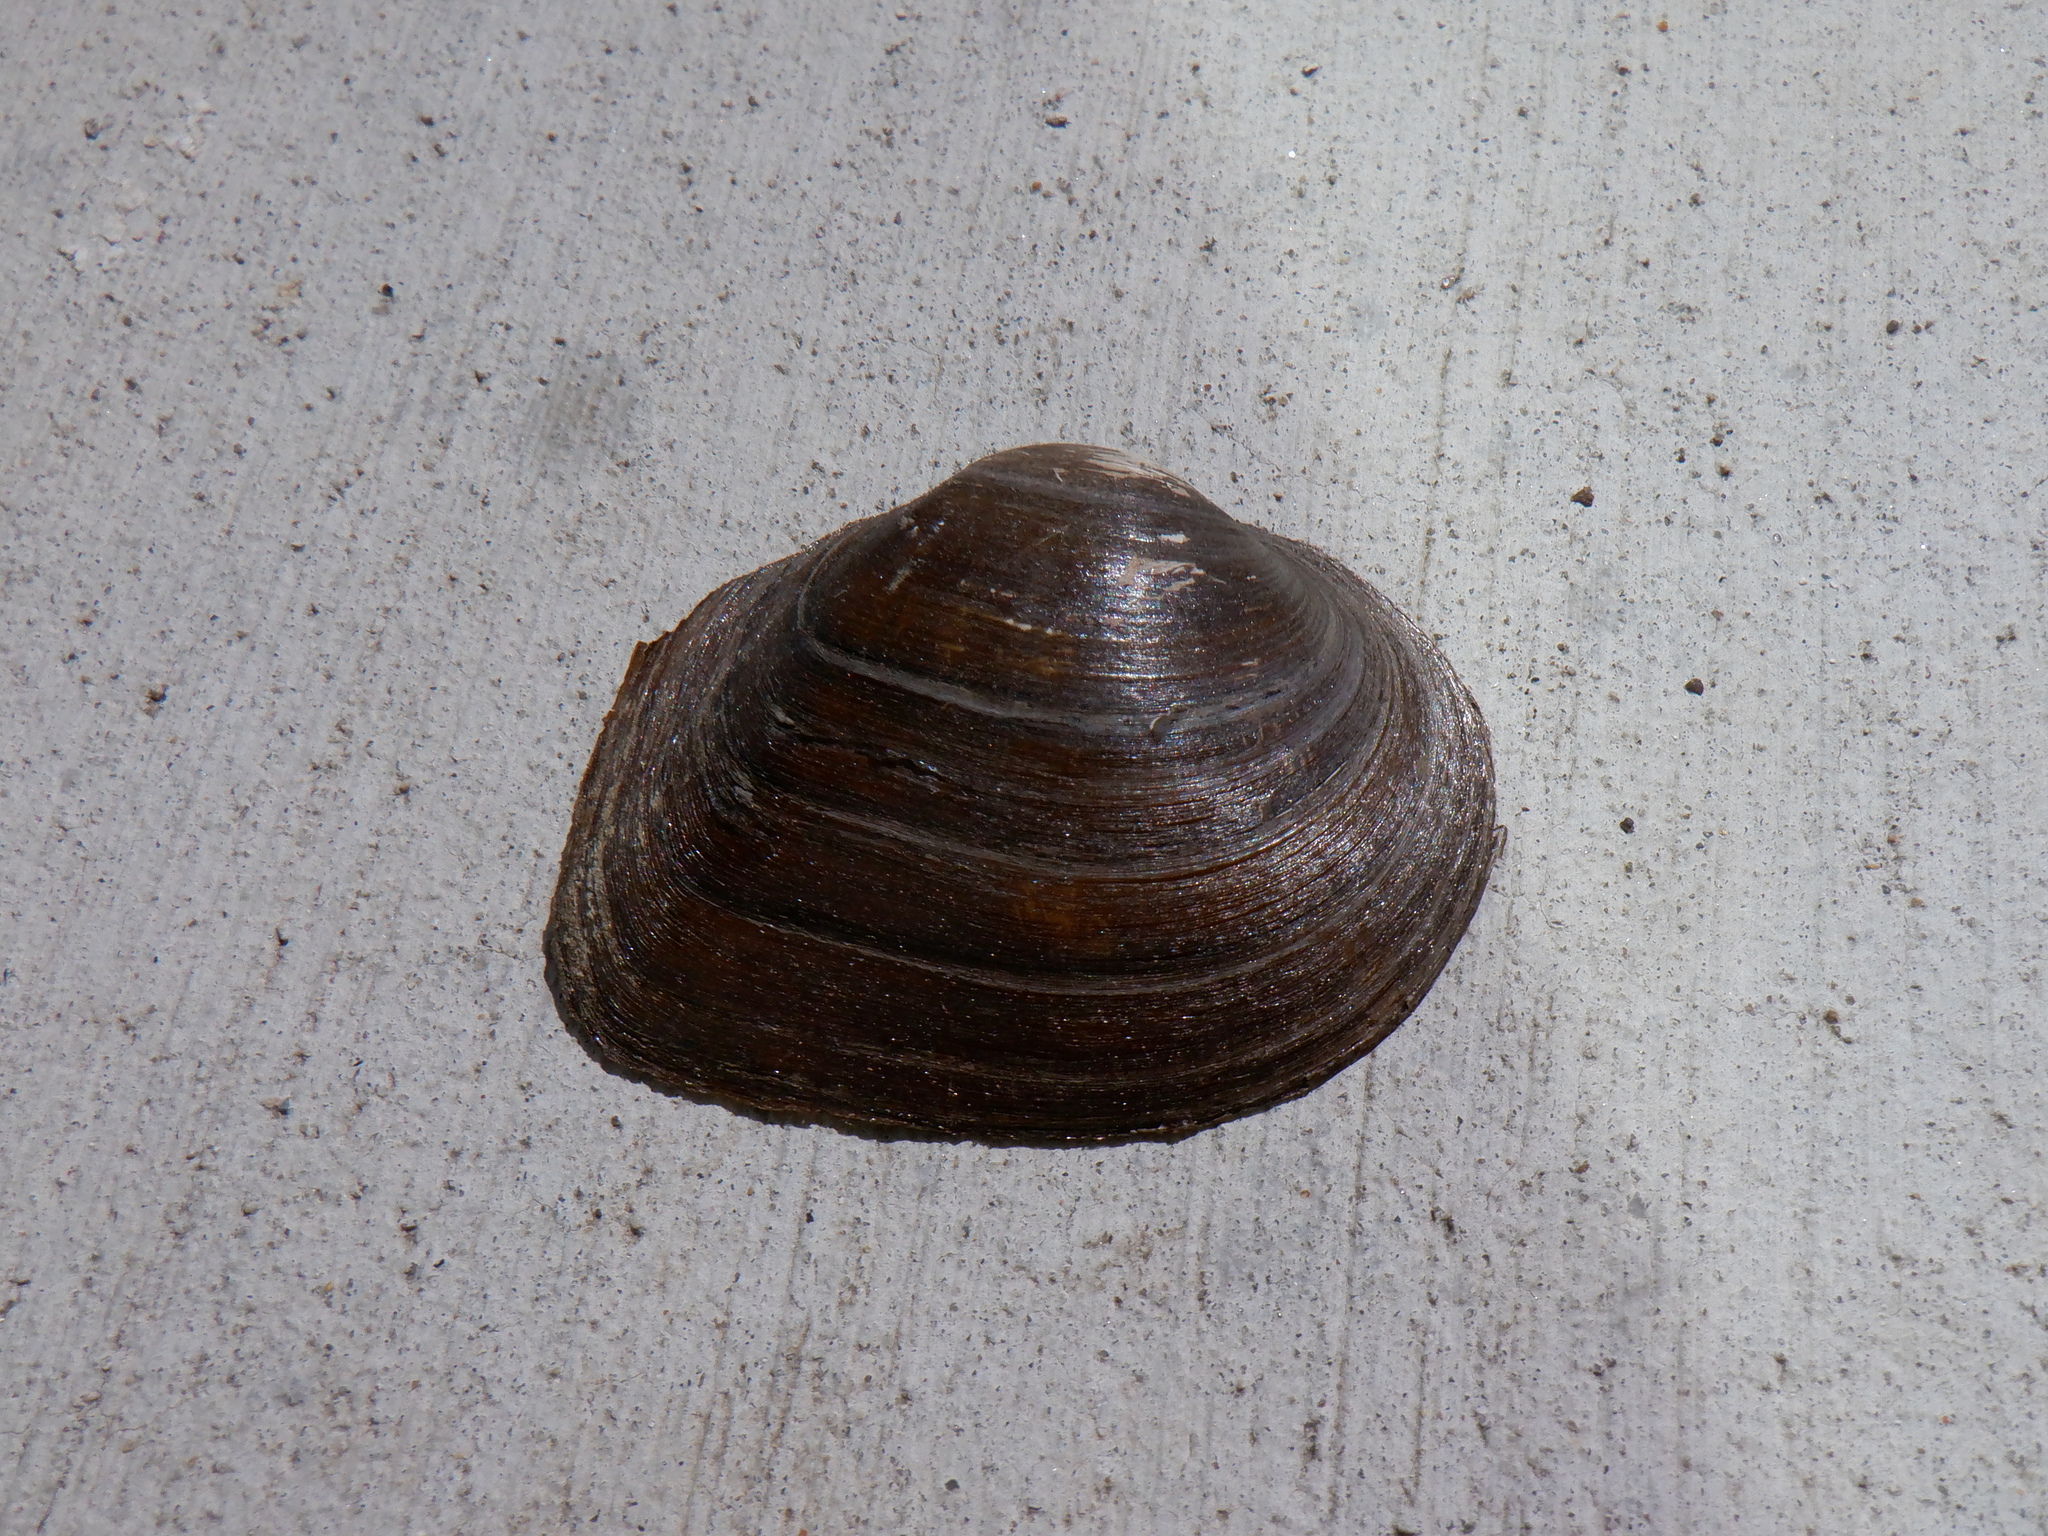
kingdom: Animalia
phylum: Mollusca
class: Bivalvia
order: Unionida
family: Unionidae
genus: Fusconaia
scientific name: Fusconaia flava
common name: Wabash pigtoe
